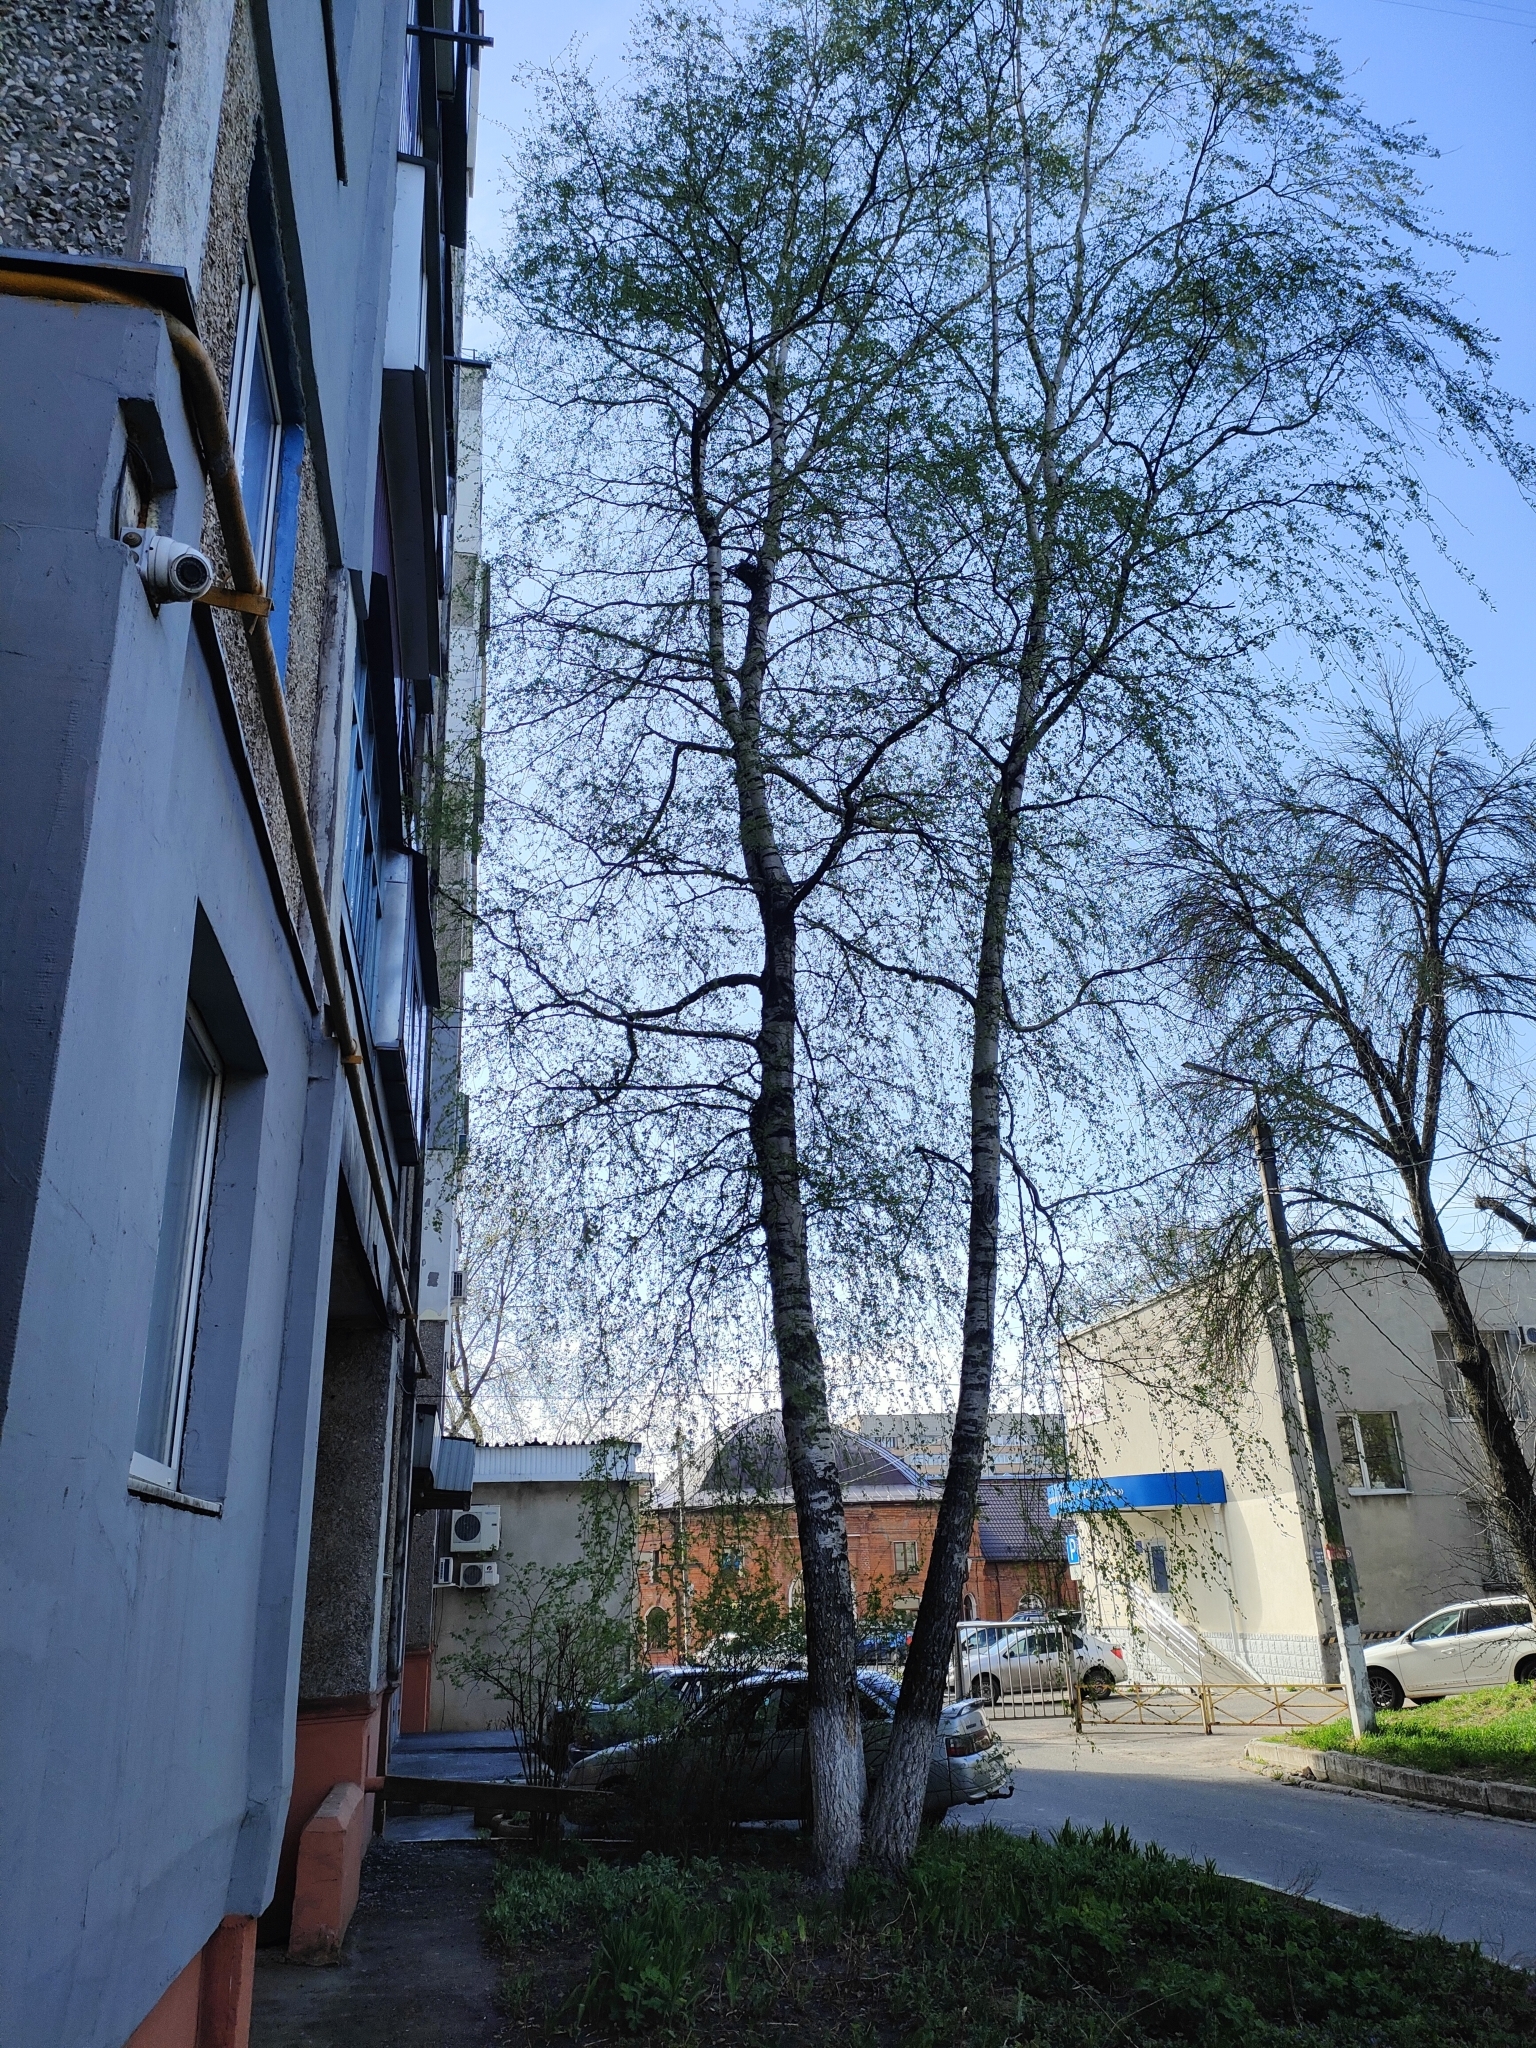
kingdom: Animalia
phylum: Chordata
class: Aves
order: Columbiformes
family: Columbidae
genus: Columba
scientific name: Columba palumbus
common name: Common wood pigeon
